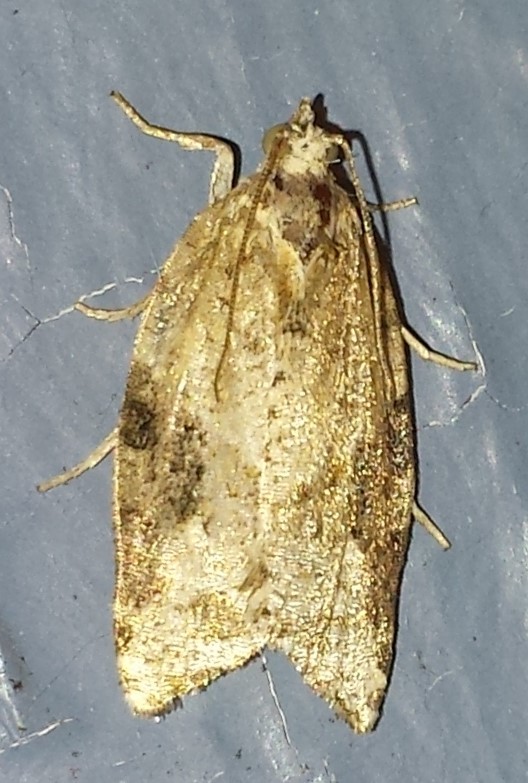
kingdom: Animalia
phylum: Arthropoda
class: Insecta
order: Lepidoptera
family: Tortricidae
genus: Argyrotaenia
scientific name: Argyrotaenia mariana
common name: Gray-banded leafroller moth
